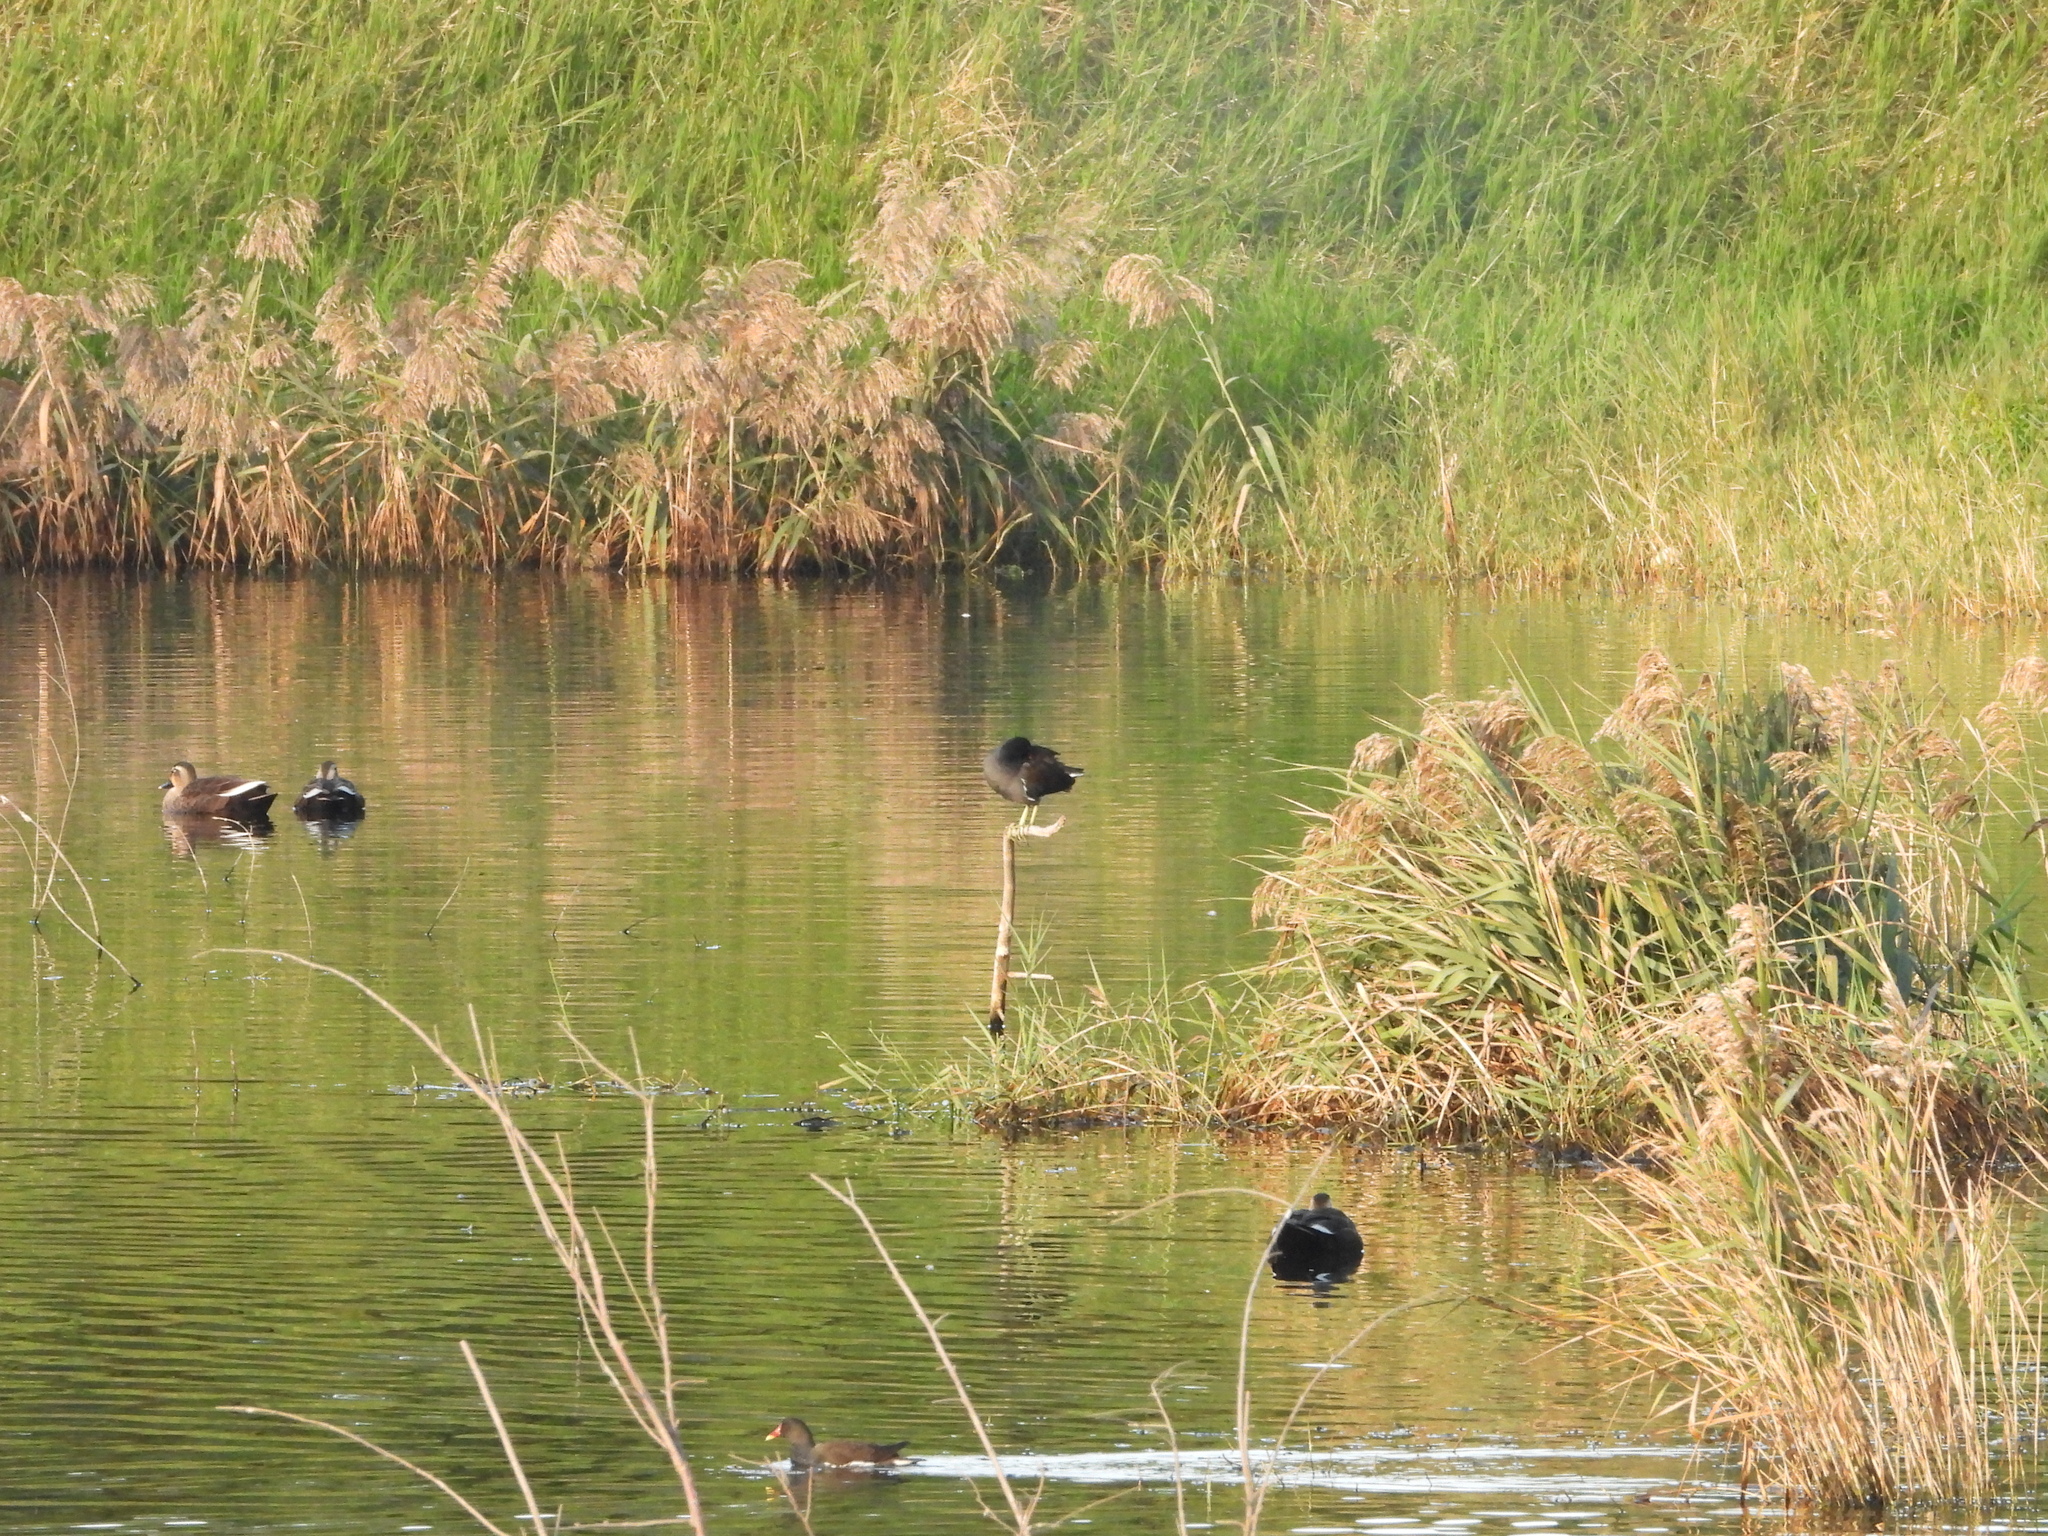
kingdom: Animalia
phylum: Chordata
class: Aves
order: Gruiformes
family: Rallidae
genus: Gallinula
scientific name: Gallinula chloropus
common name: Common moorhen
